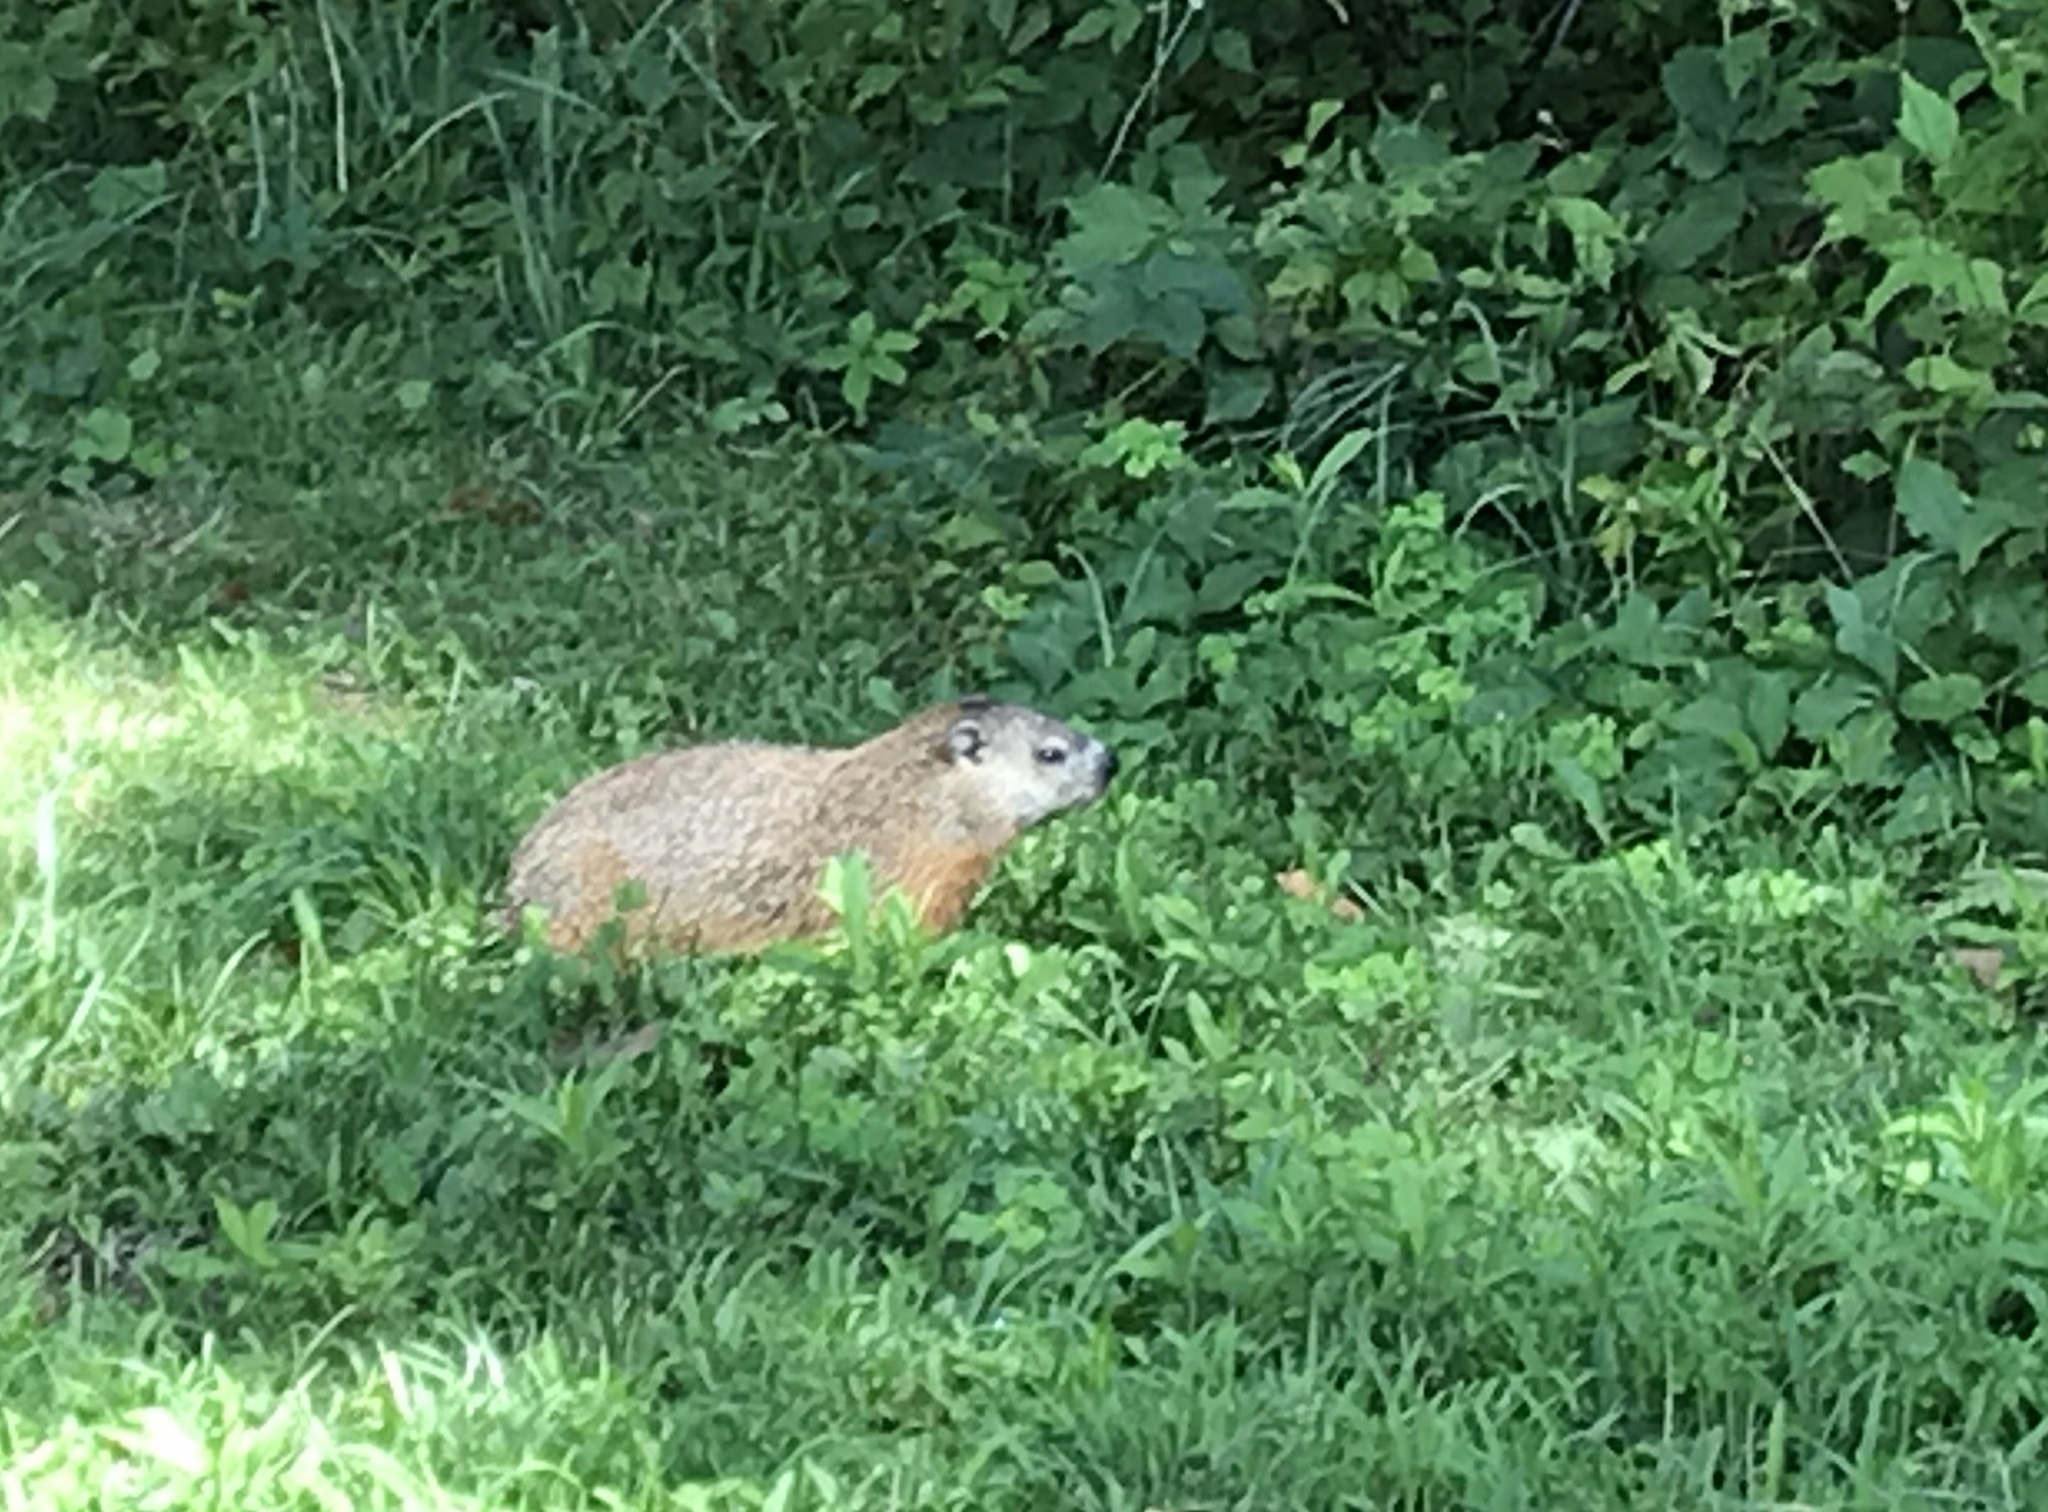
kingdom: Animalia
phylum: Chordata
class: Mammalia
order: Rodentia
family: Sciuridae
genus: Marmota
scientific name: Marmota monax
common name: Groundhog
